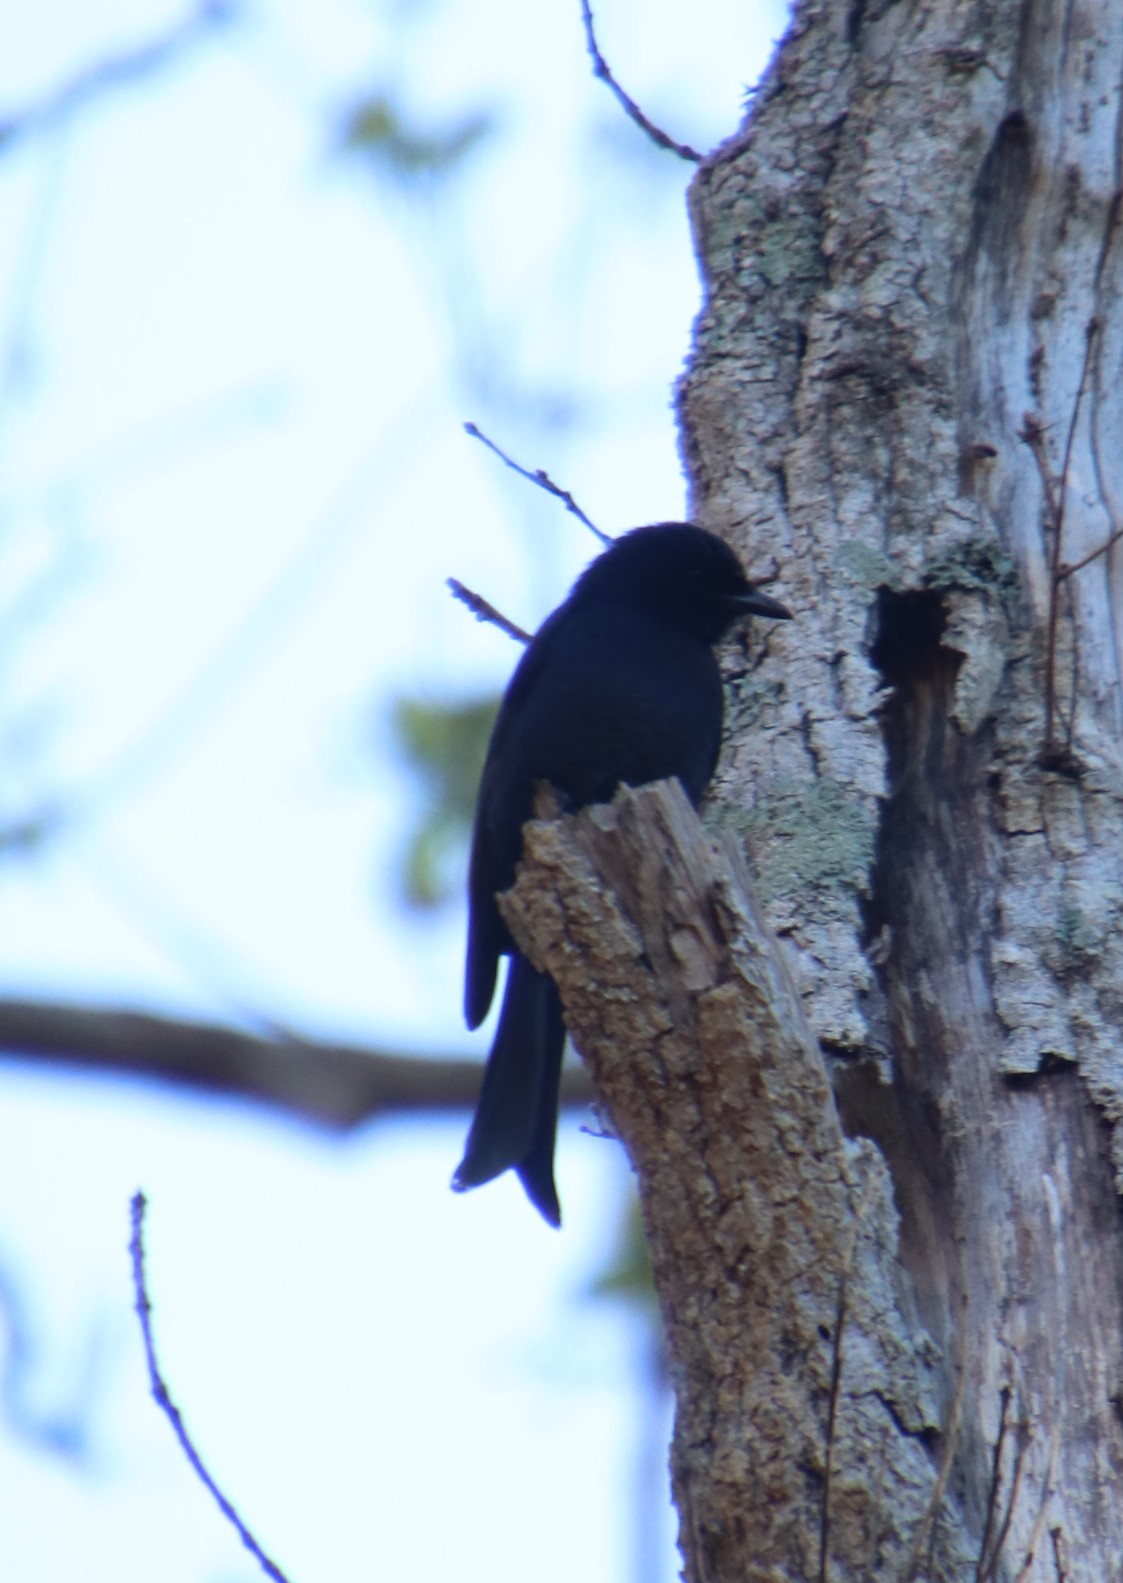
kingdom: Animalia
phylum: Chordata
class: Aves
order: Passeriformes
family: Dicruridae
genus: Dicrurus
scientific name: Dicrurus adsimilis
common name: Fork-tailed drongo
